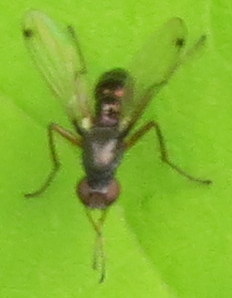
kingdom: Animalia
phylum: Arthropoda
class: Insecta
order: Diptera
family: Sepsidae
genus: Sepsis
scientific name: Sepsis
